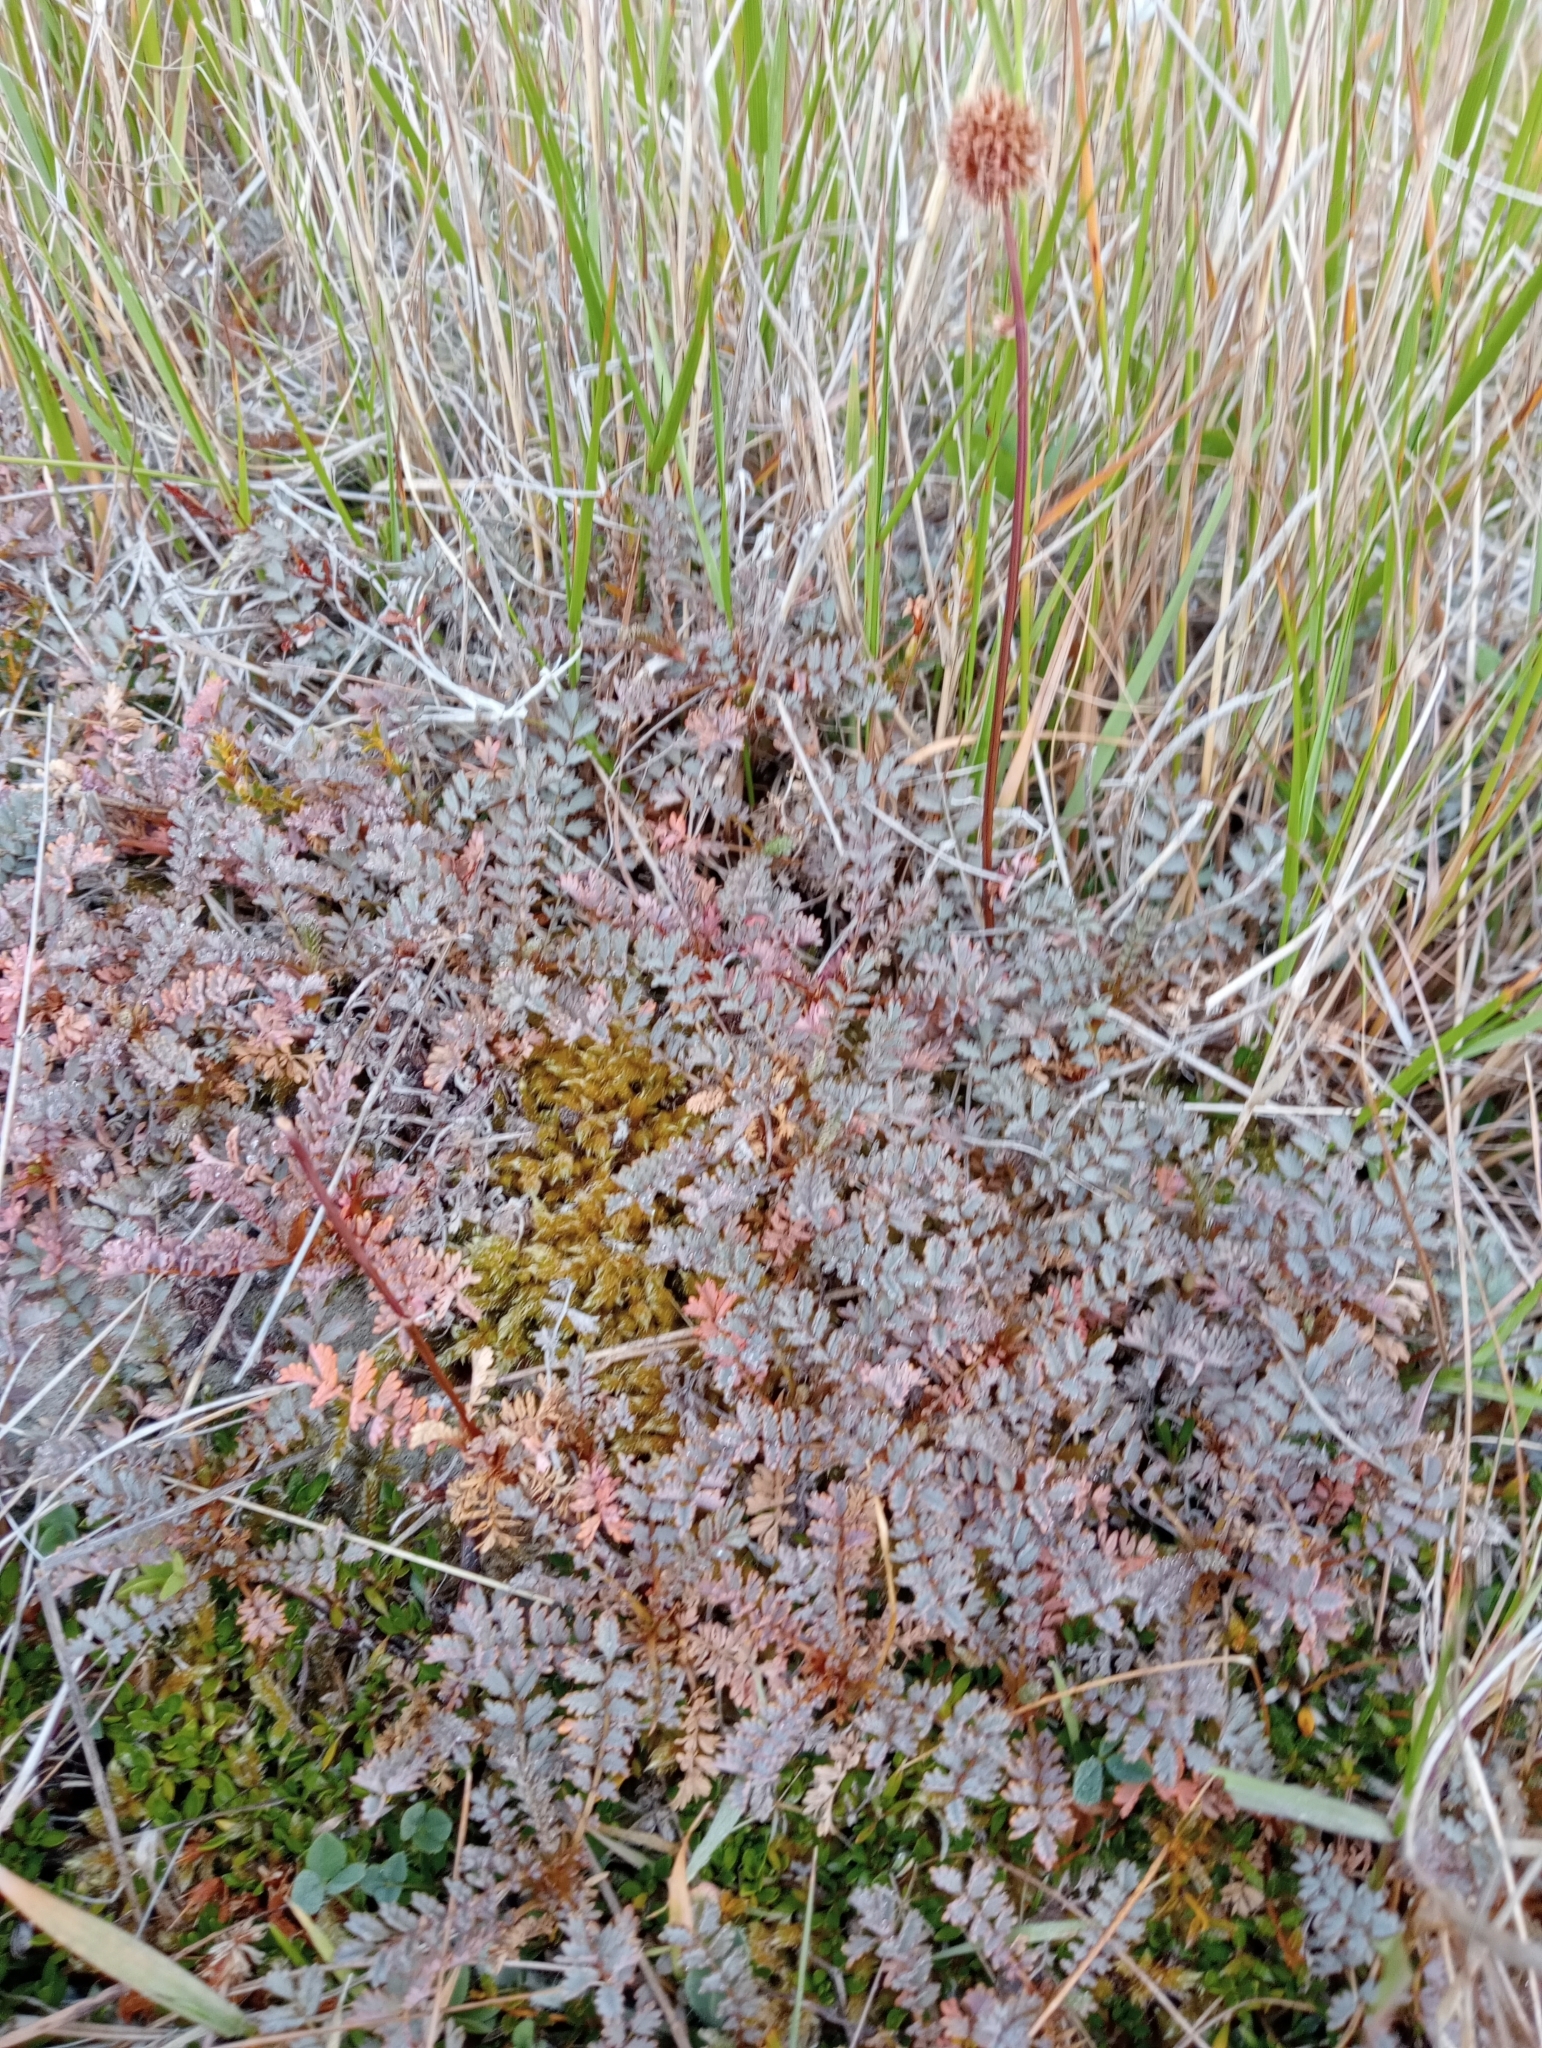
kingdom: Plantae
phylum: Tracheophyta
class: Magnoliopsida
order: Rosales
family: Rosaceae
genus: Acaena
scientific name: Acaena saccaticupula
